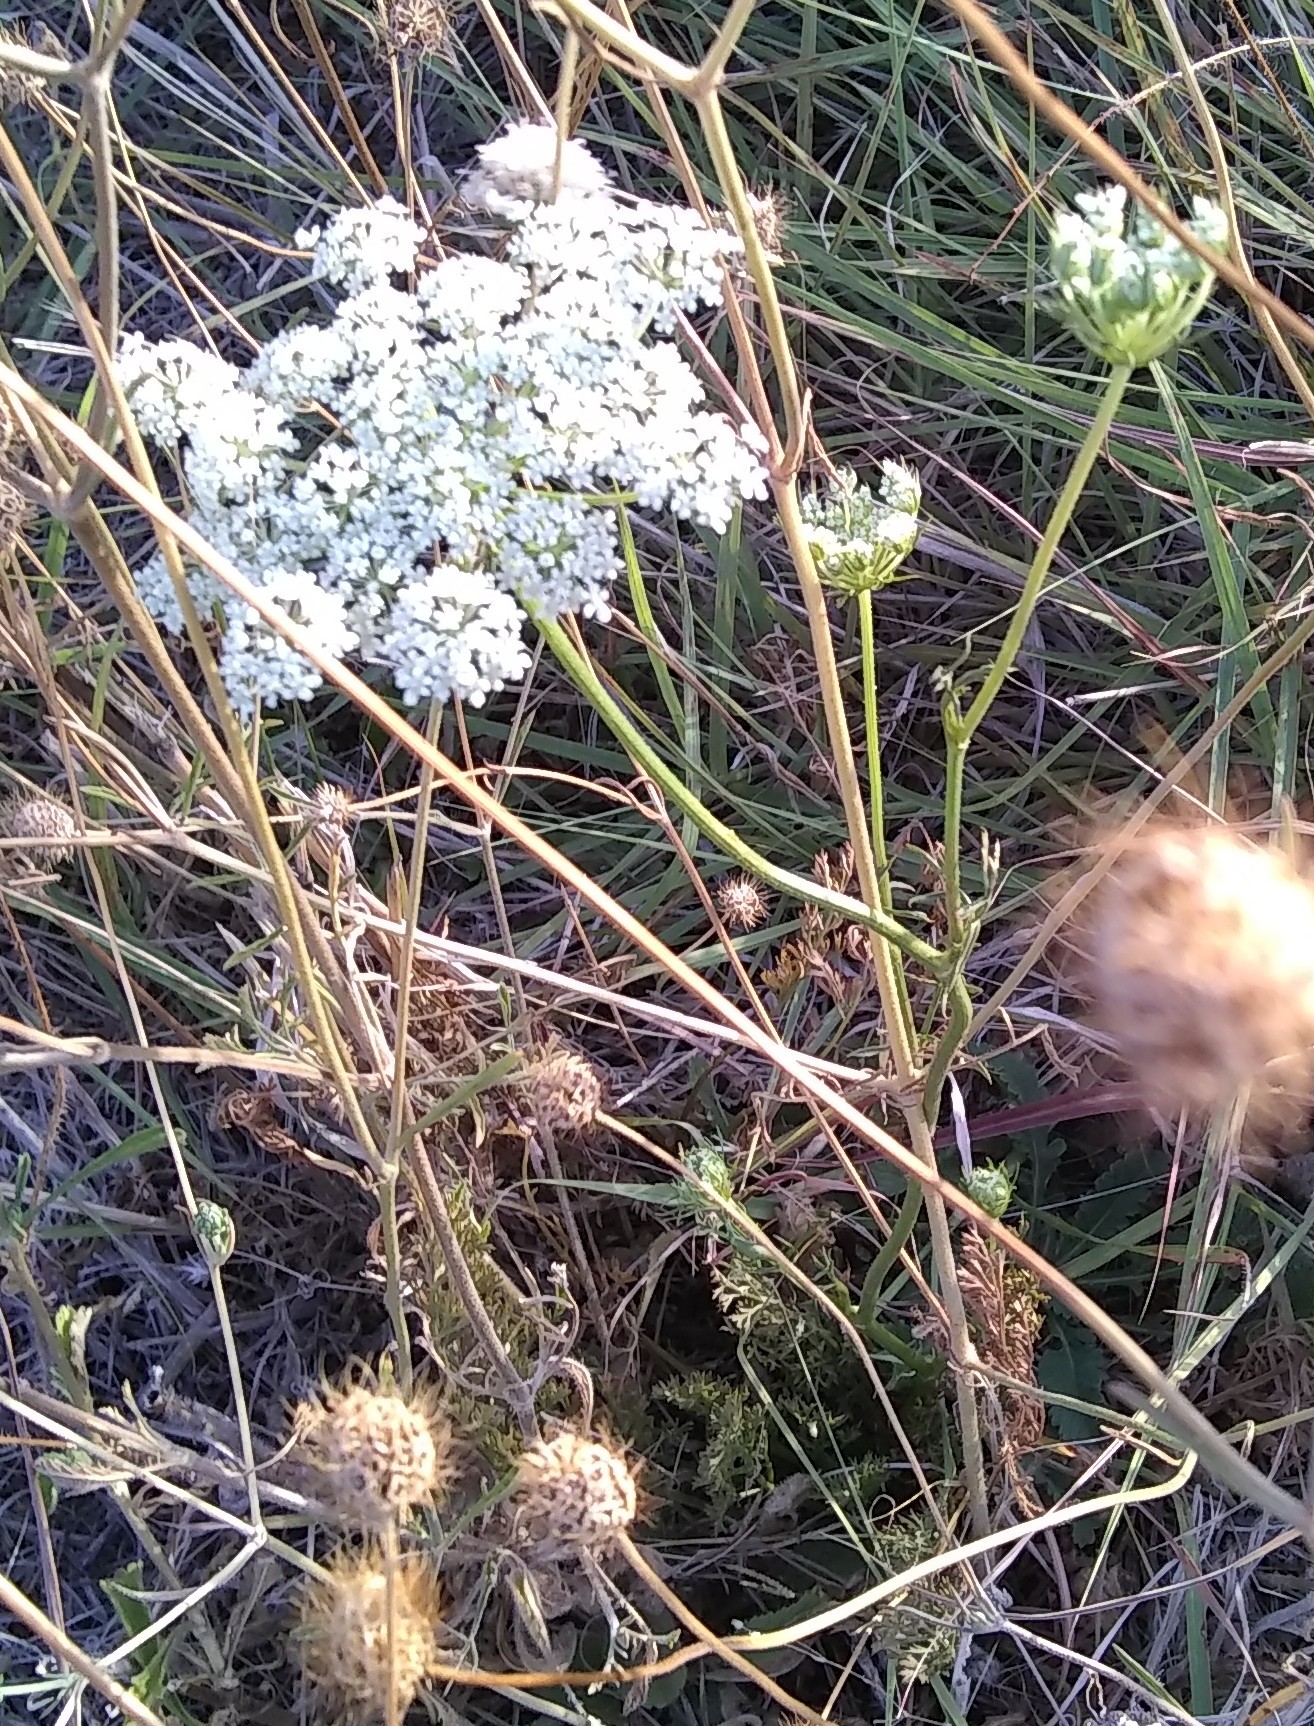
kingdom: Plantae
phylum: Tracheophyta
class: Magnoliopsida
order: Apiales
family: Apiaceae
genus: Daucus
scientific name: Daucus carota
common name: Wild carrot
